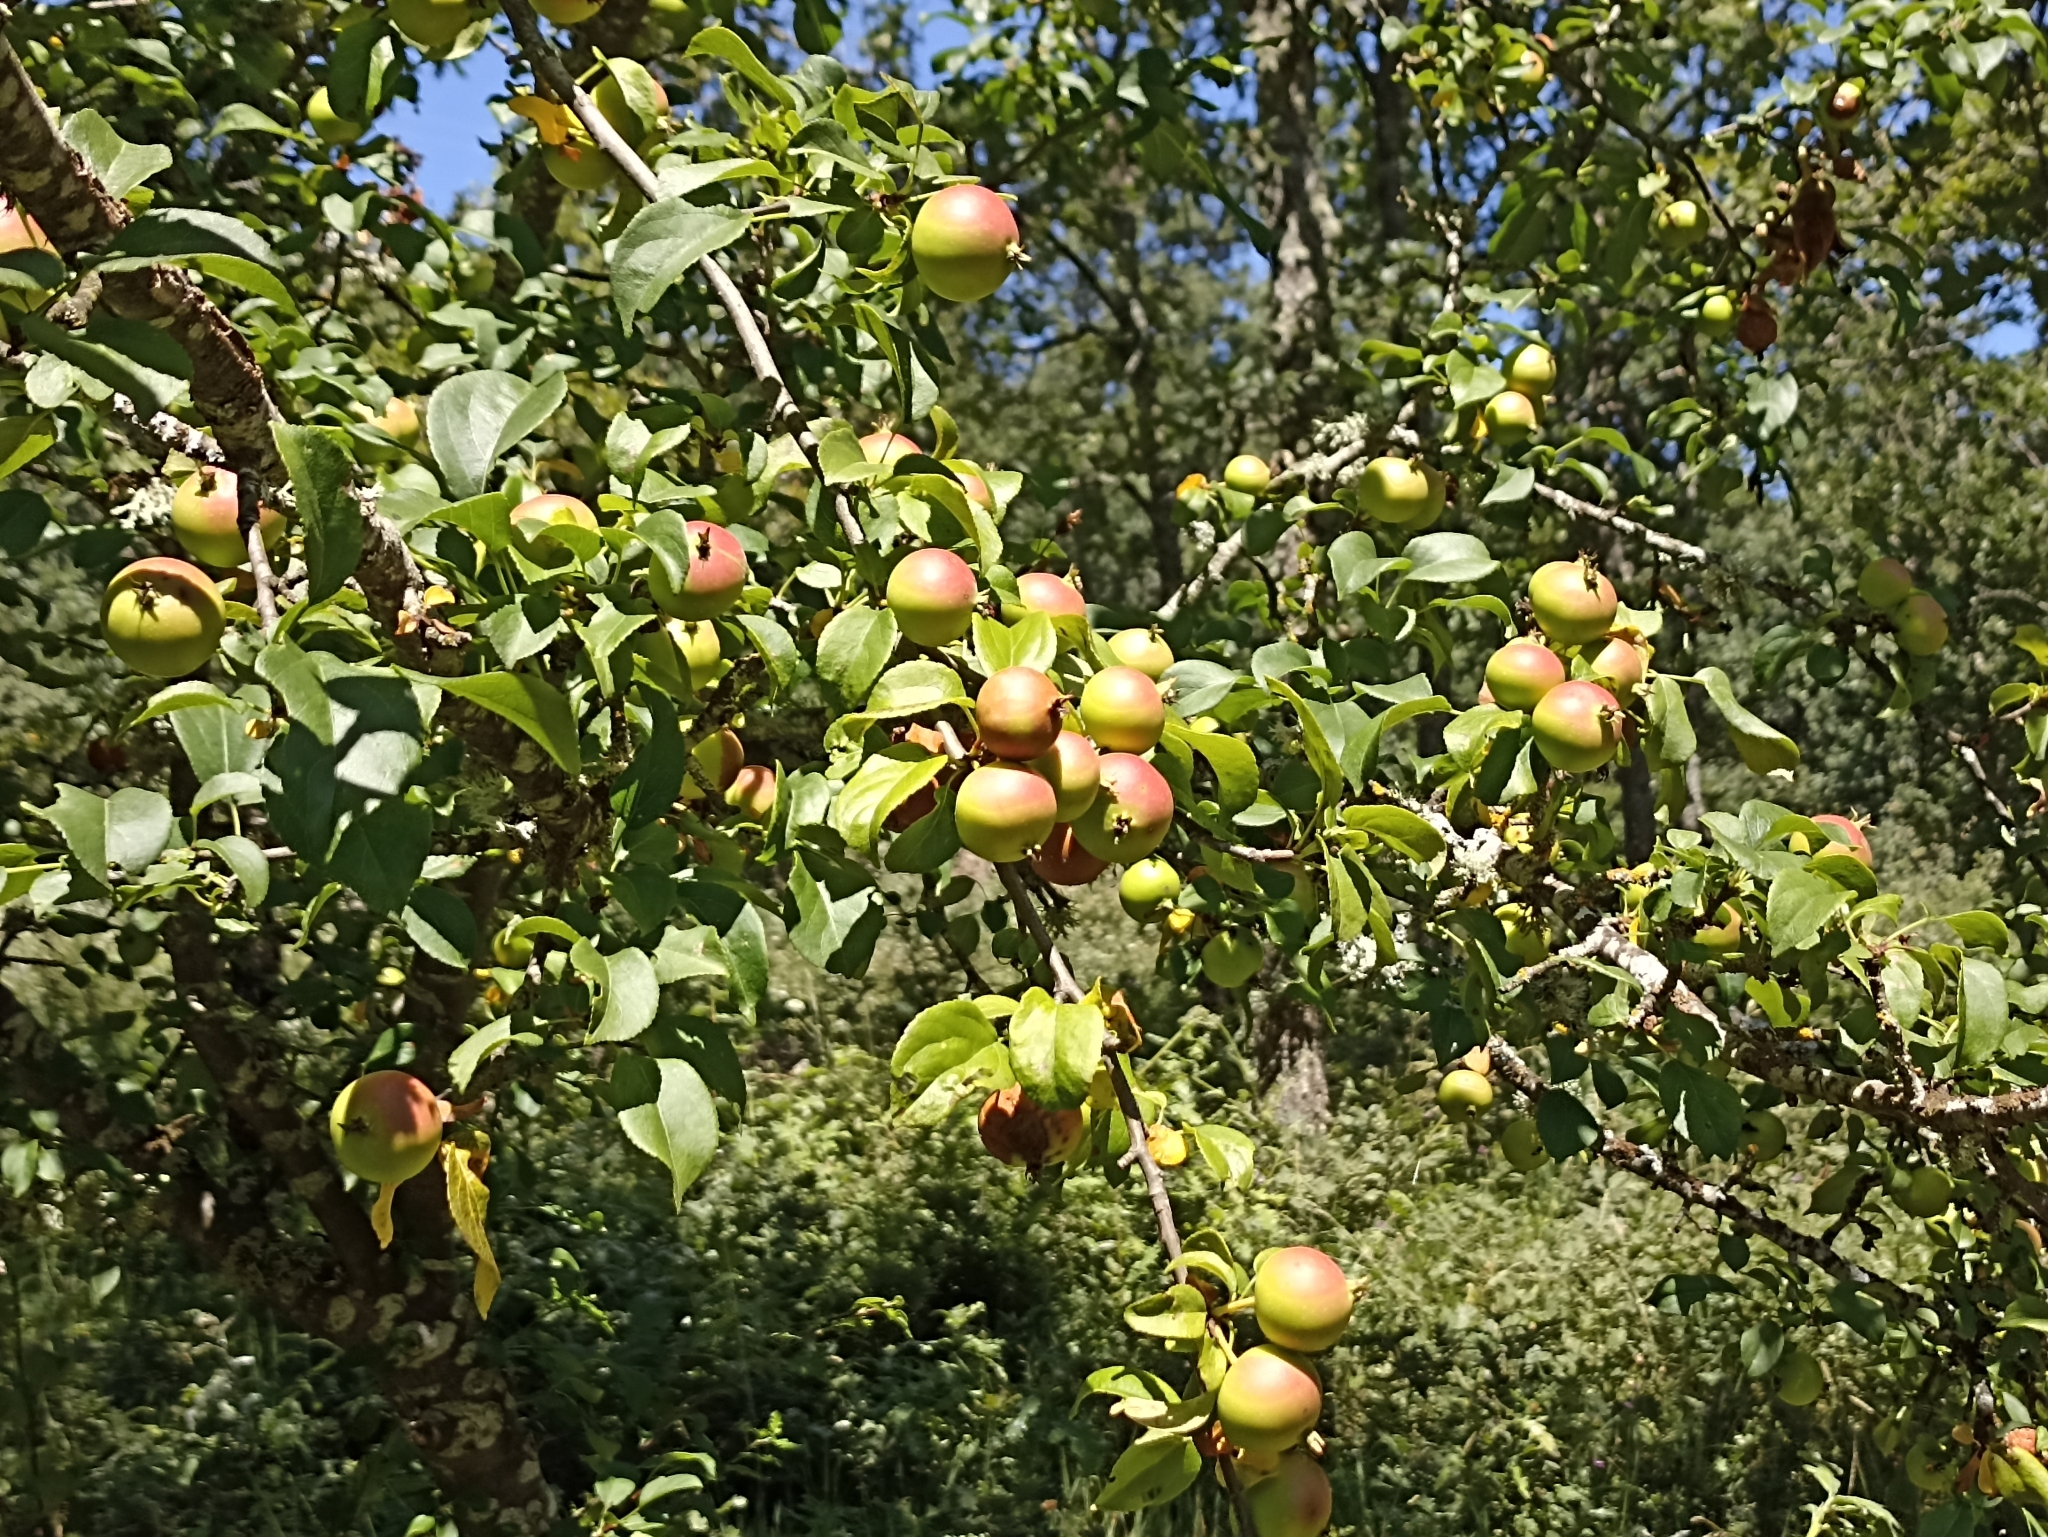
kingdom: Plantae
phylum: Tracheophyta
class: Magnoliopsida
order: Rosales
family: Rosaceae
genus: Malus
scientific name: Malus sylvestris
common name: Crab apple
